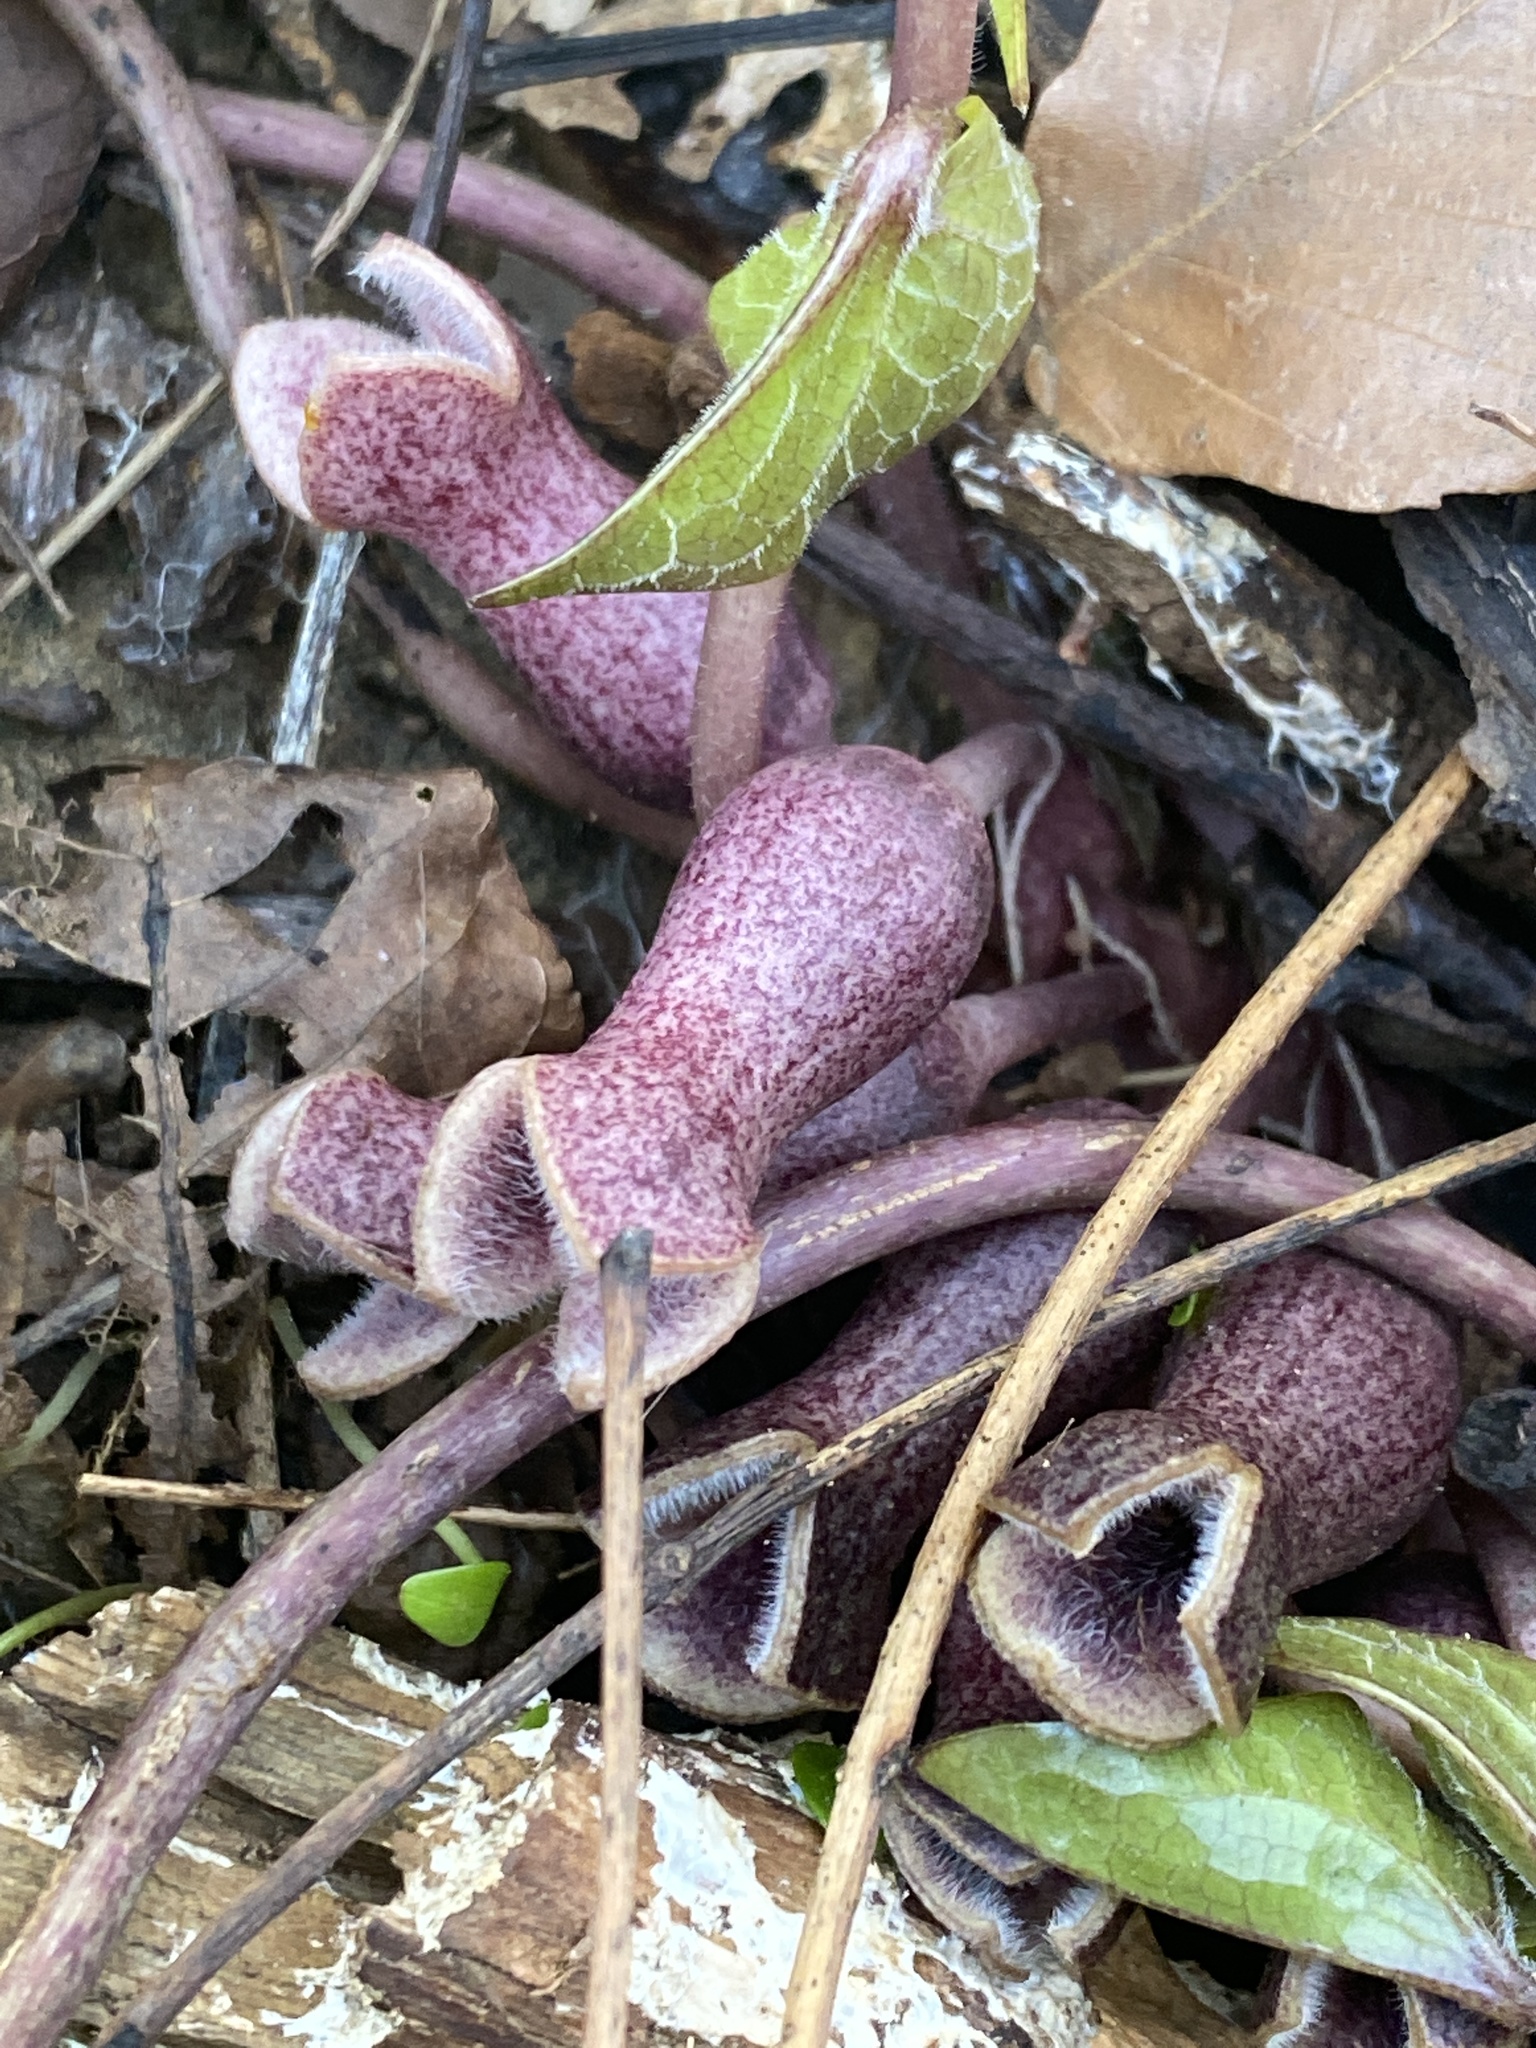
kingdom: Plantae
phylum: Tracheophyta
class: Magnoliopsida
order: Piperales
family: Aristolochiaceae
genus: Hexastylis
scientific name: Hexastylis arifolia
